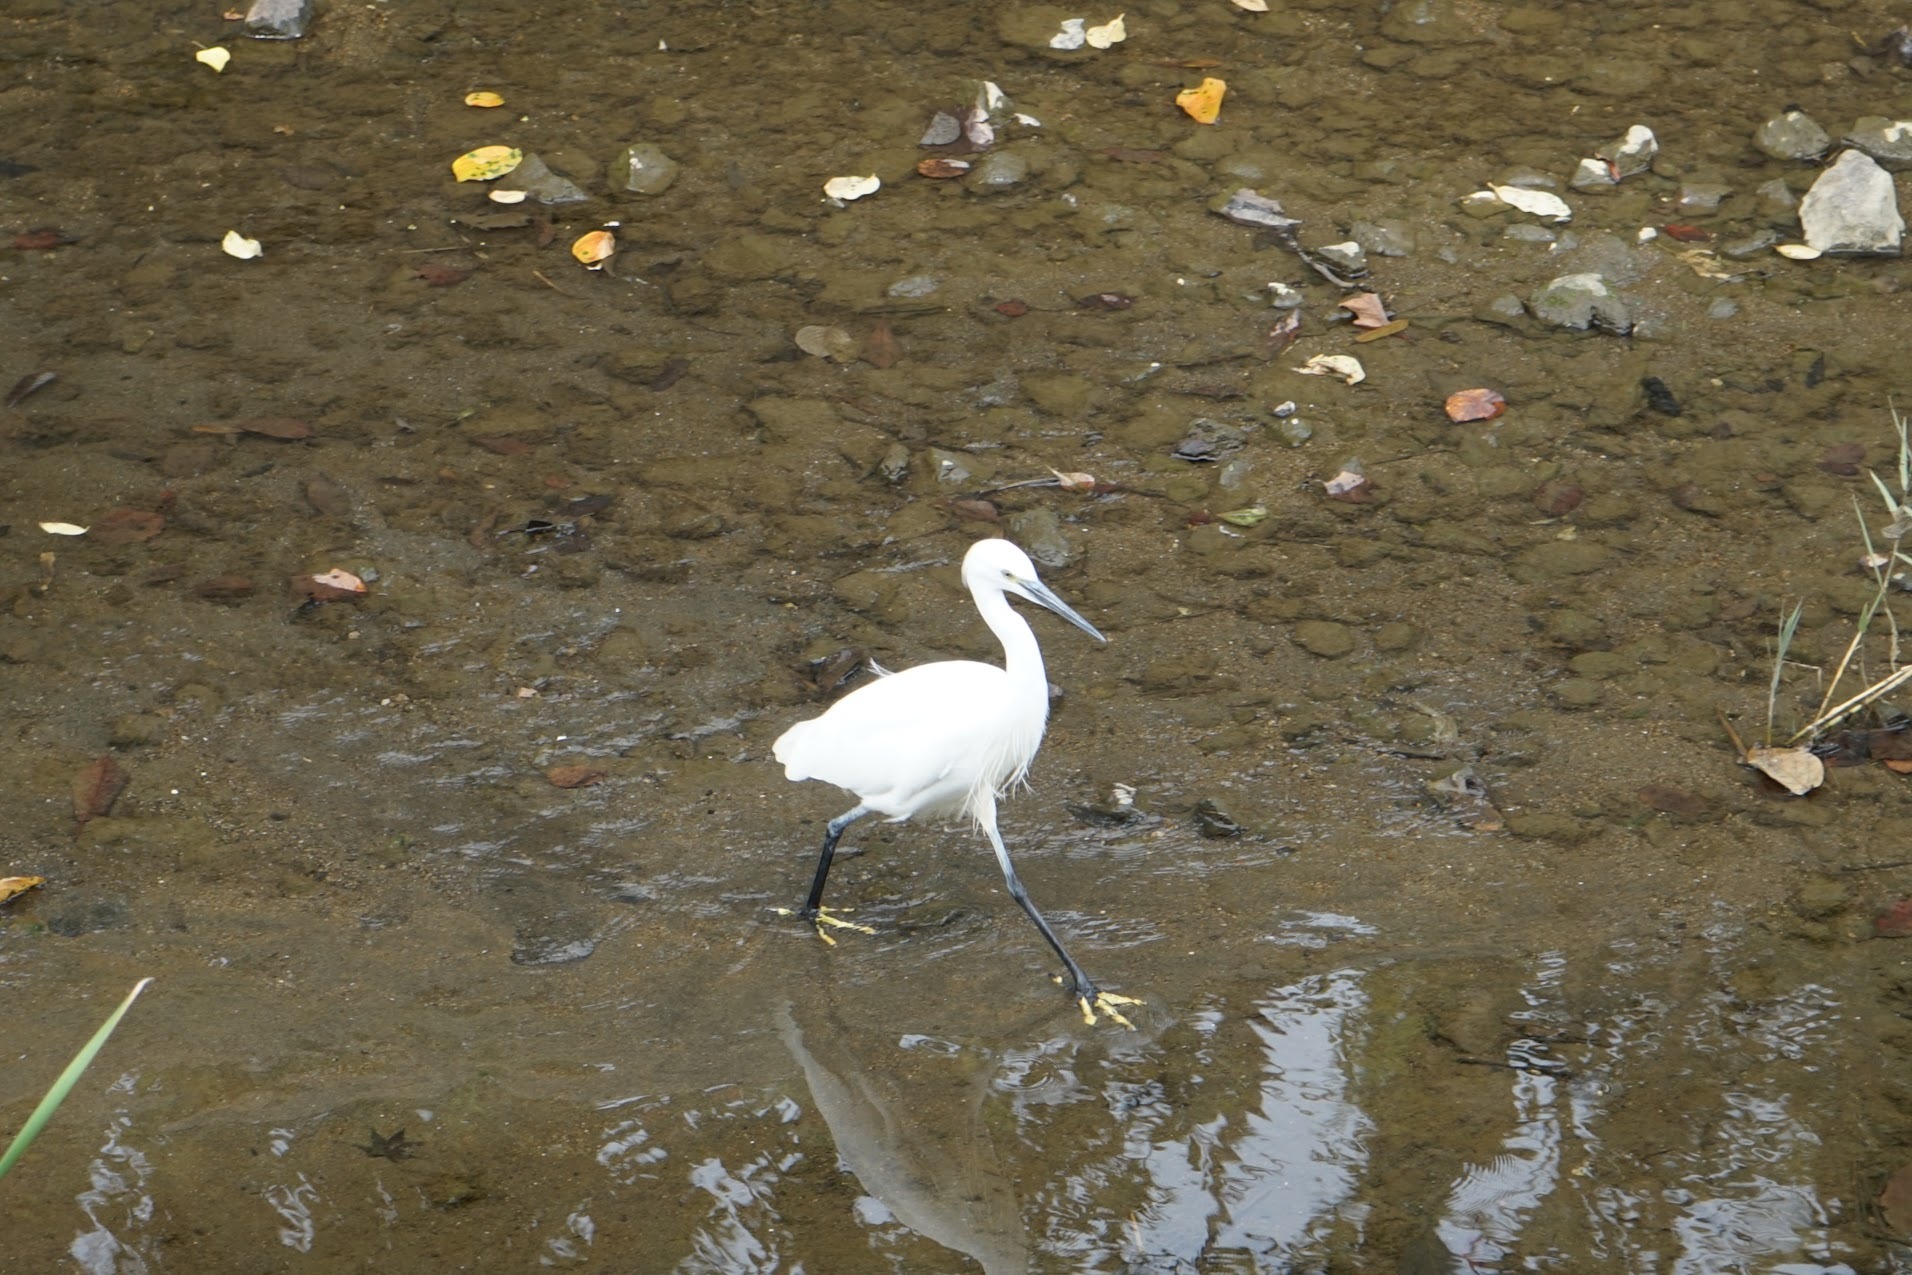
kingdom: Animalia
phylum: Chordata
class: Aves
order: Pelecaniformes
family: Ardeidae
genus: Egretta
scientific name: Egretta garzetta
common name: Little egret
